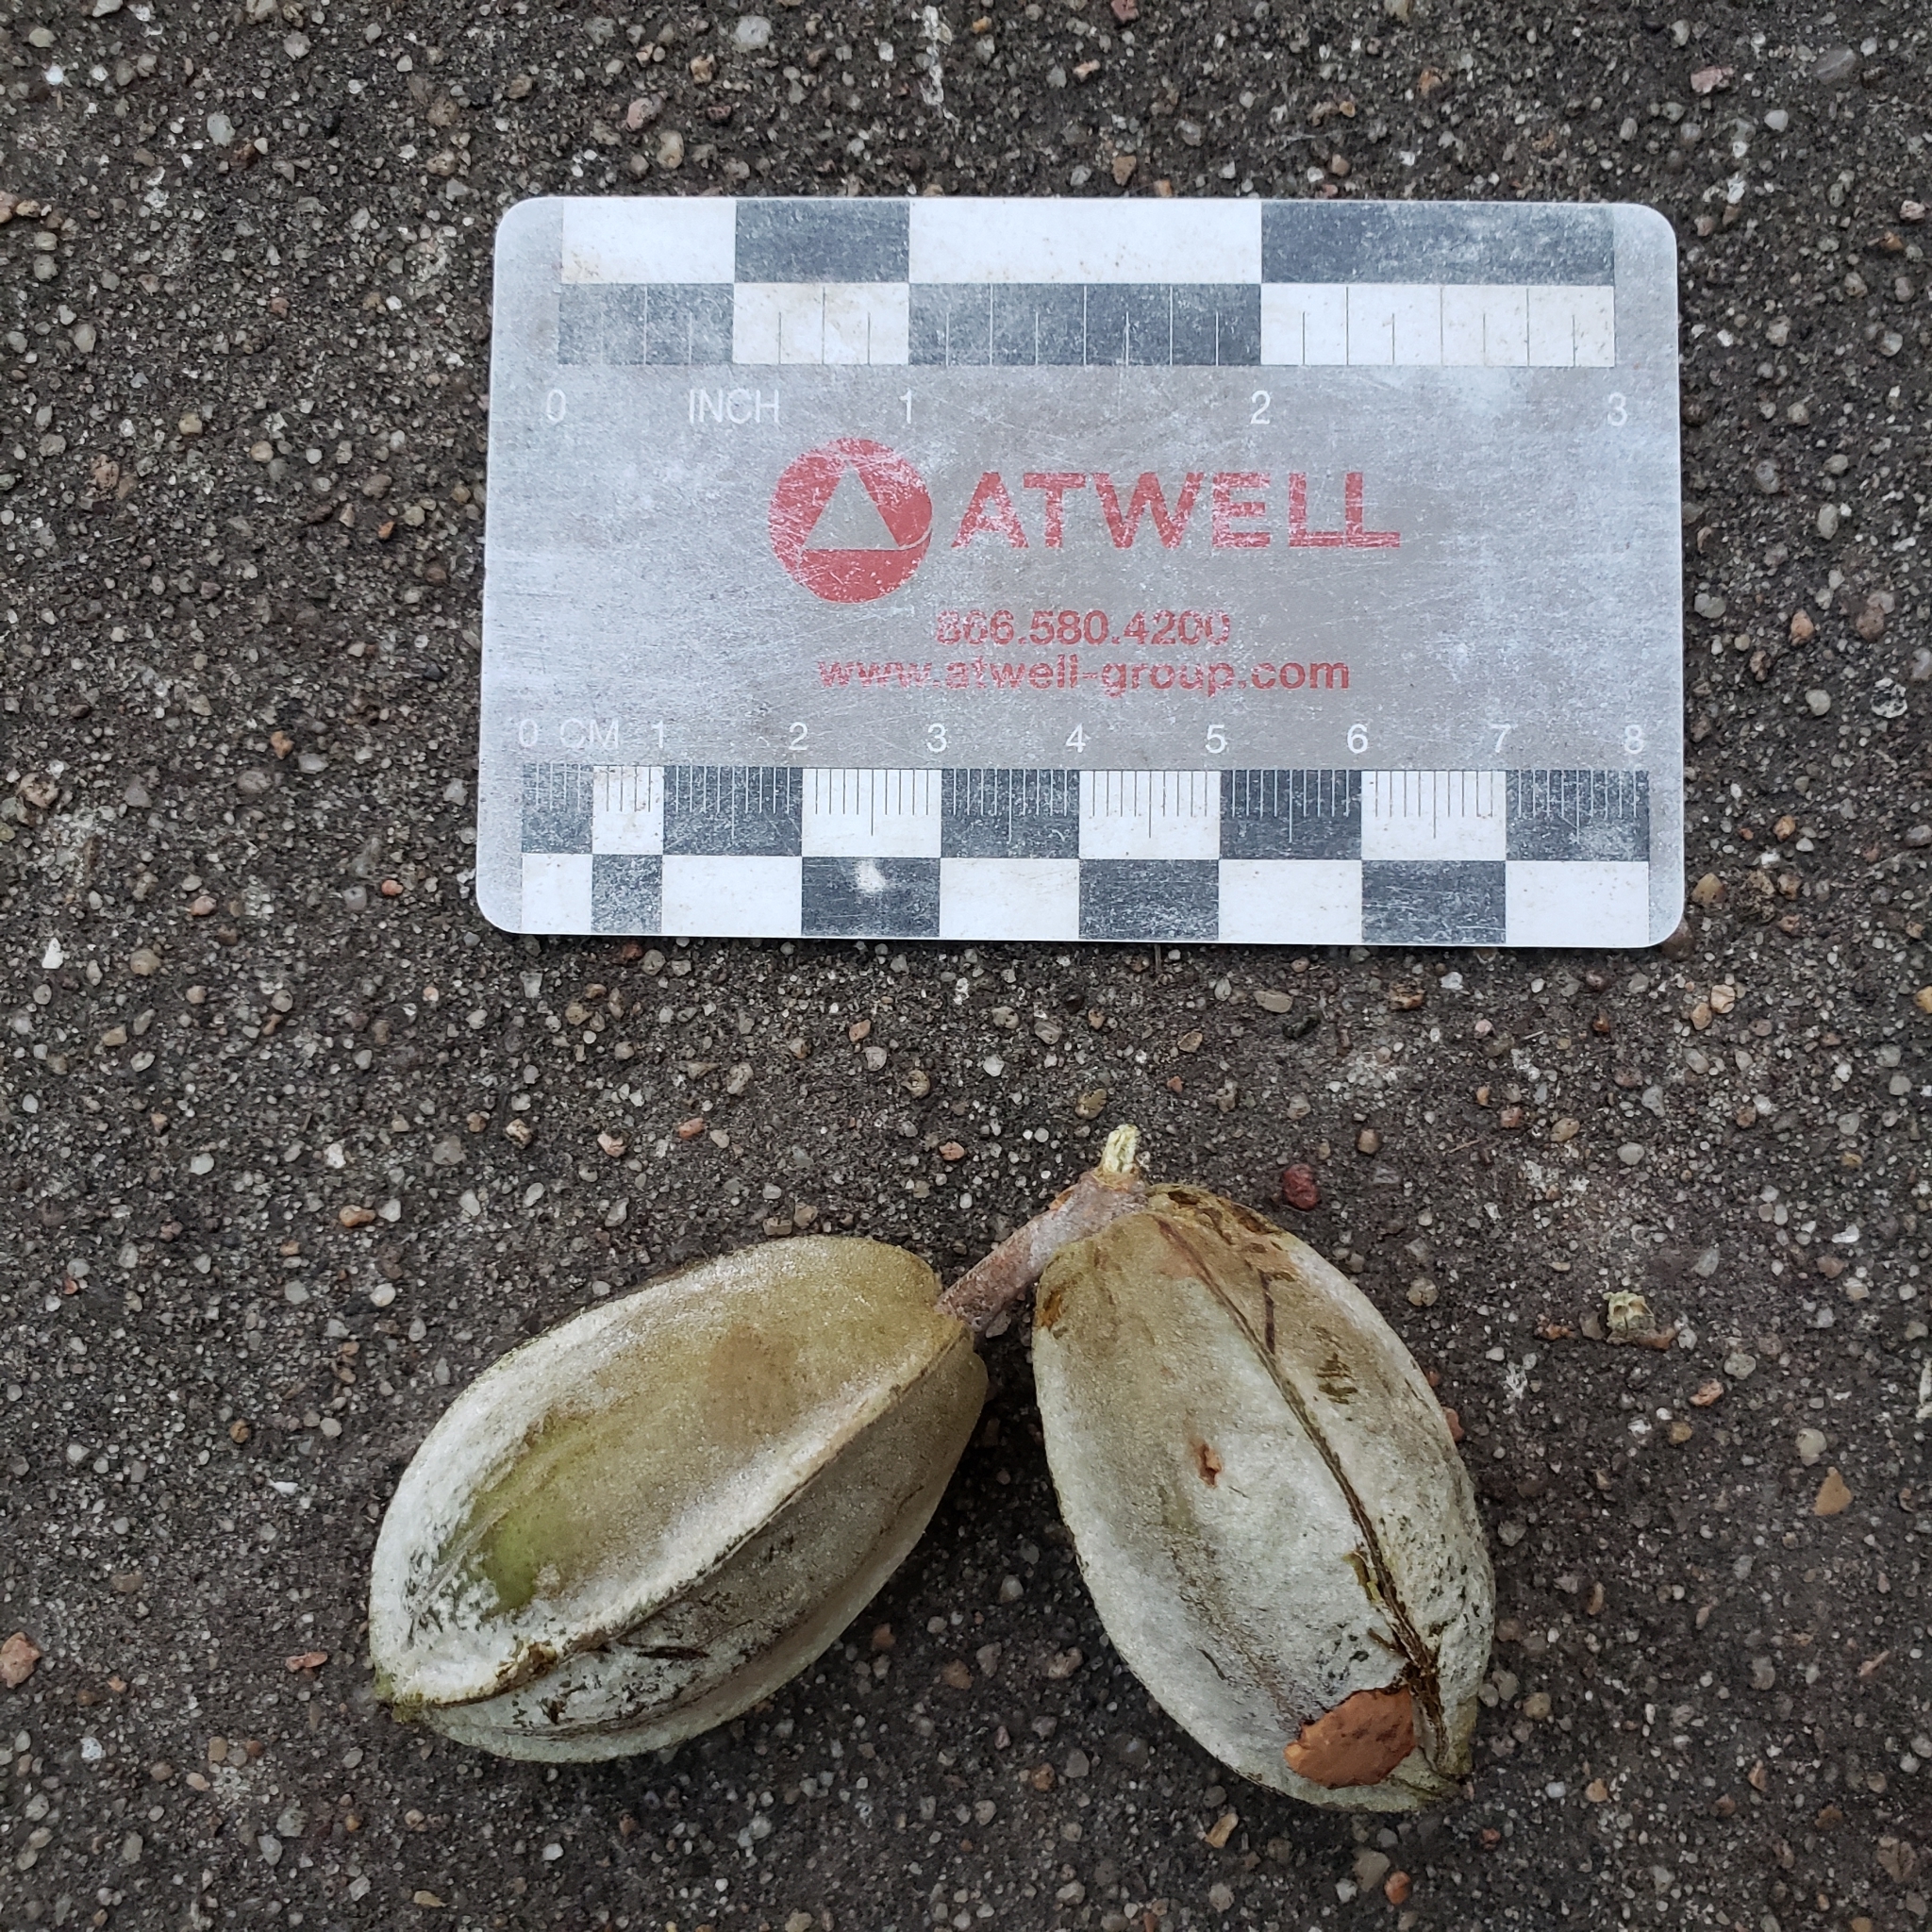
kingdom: Plantae
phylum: Tracheophyta
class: Magnoliopsida
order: Fagales
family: Juglandaceae
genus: Carya
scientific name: Carya illinoinensis
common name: Pecan
